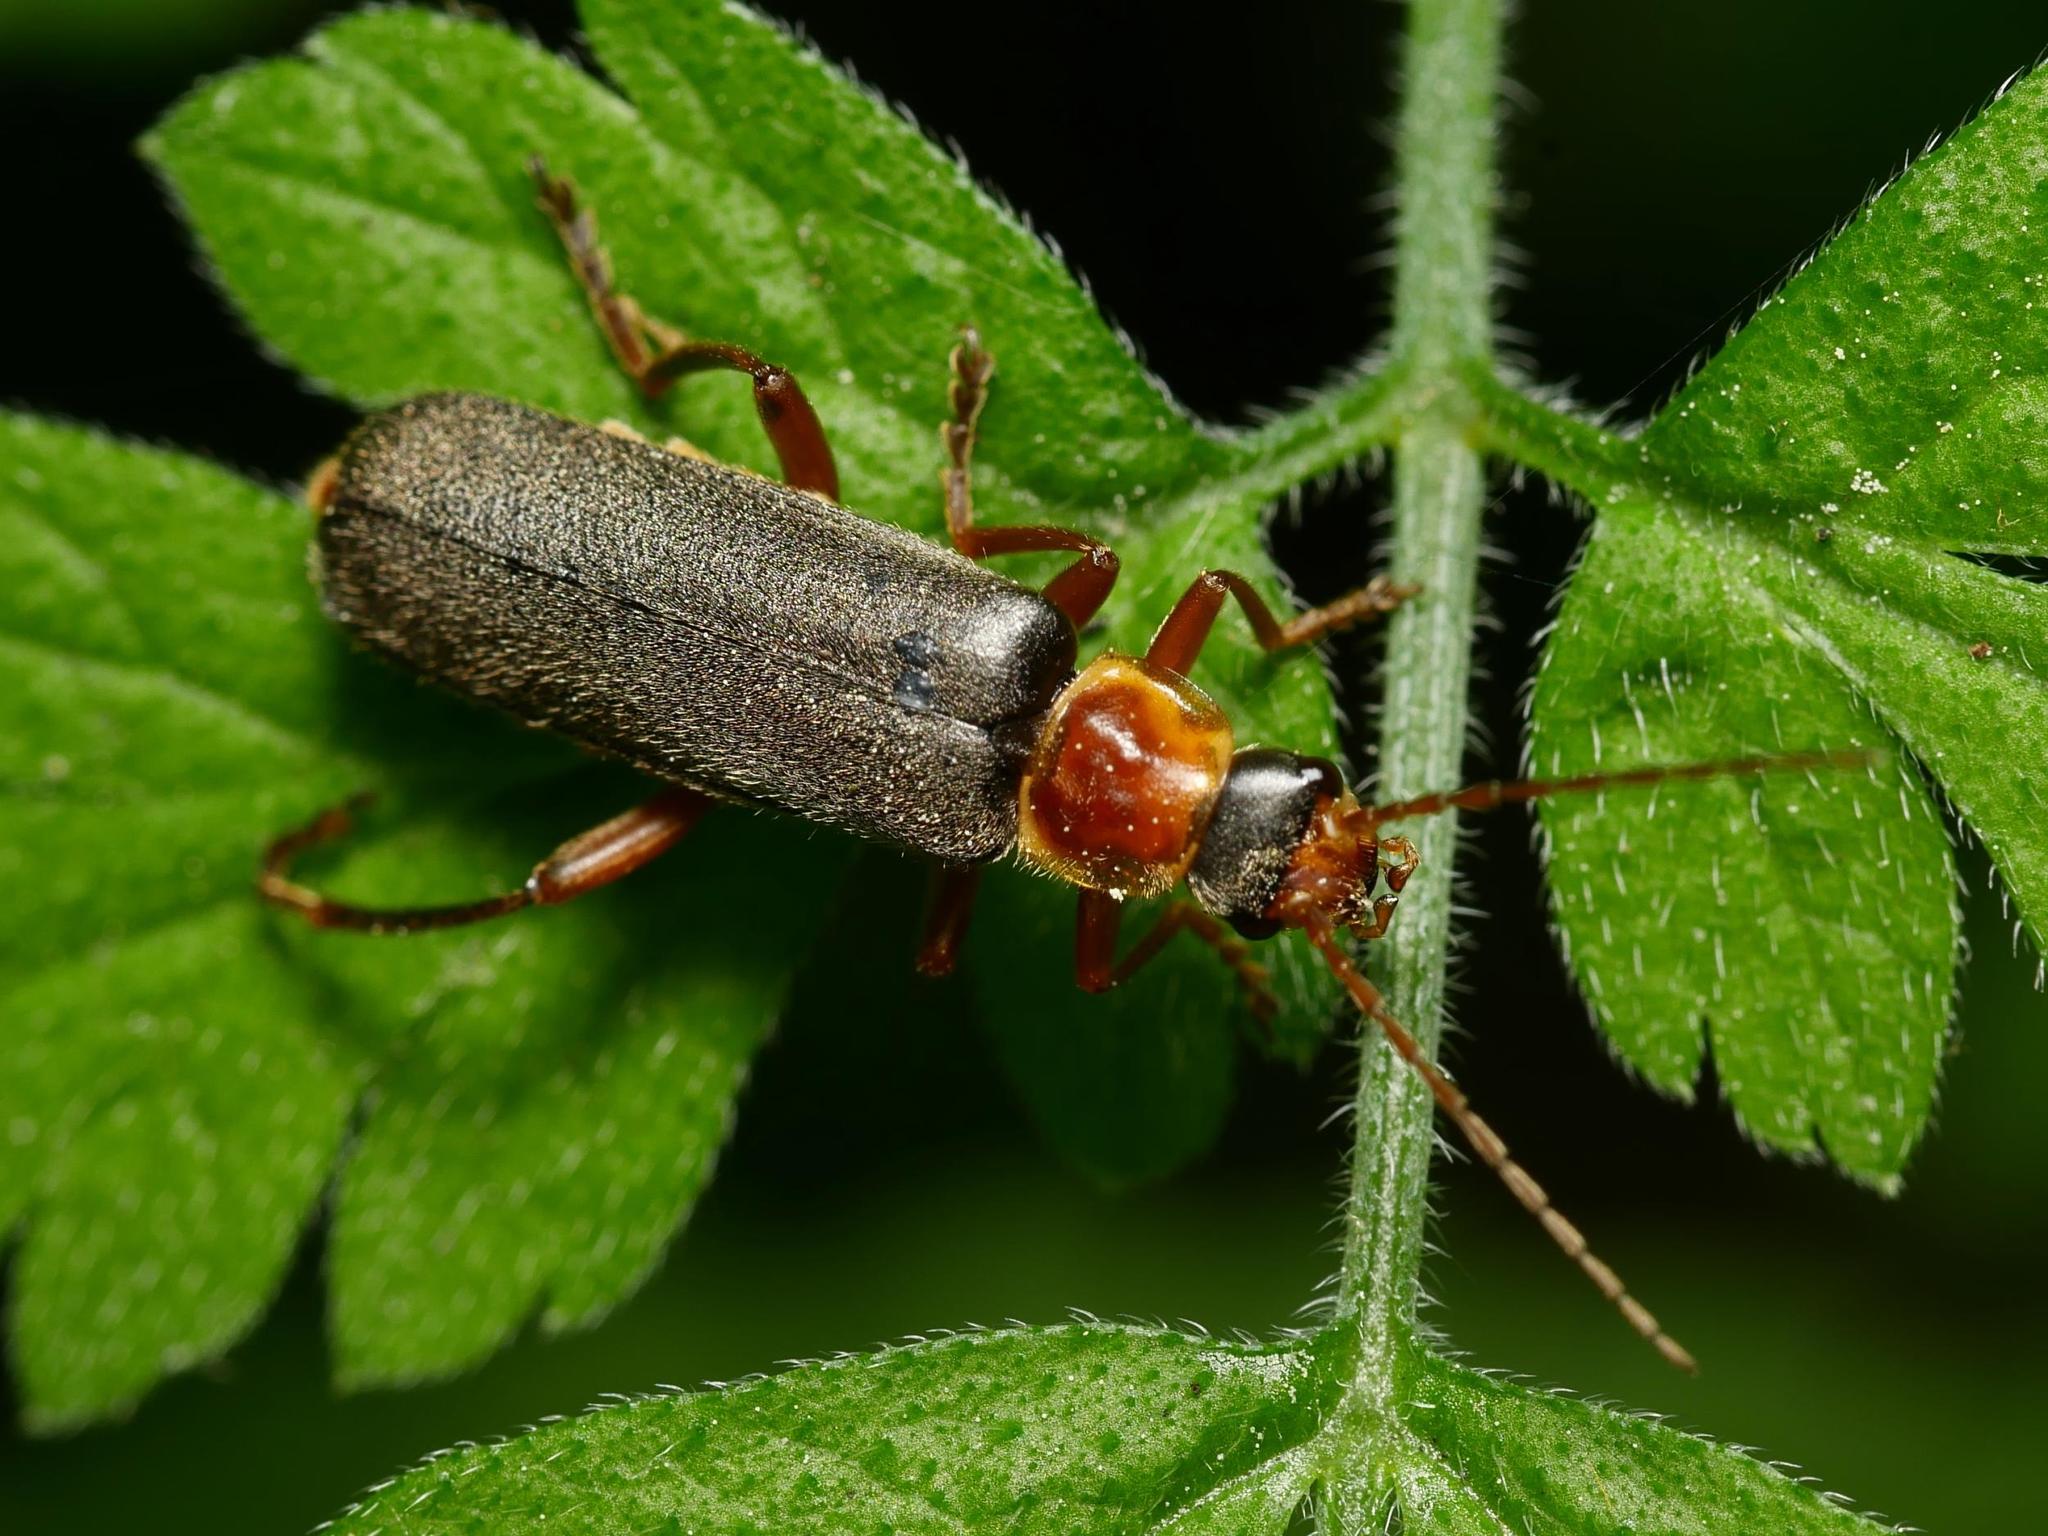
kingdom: Animalia
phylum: Arthropoda
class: Insecta
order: Coleoptera
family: Cantharidae
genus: Cantharis
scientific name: Cantharis nigricans
